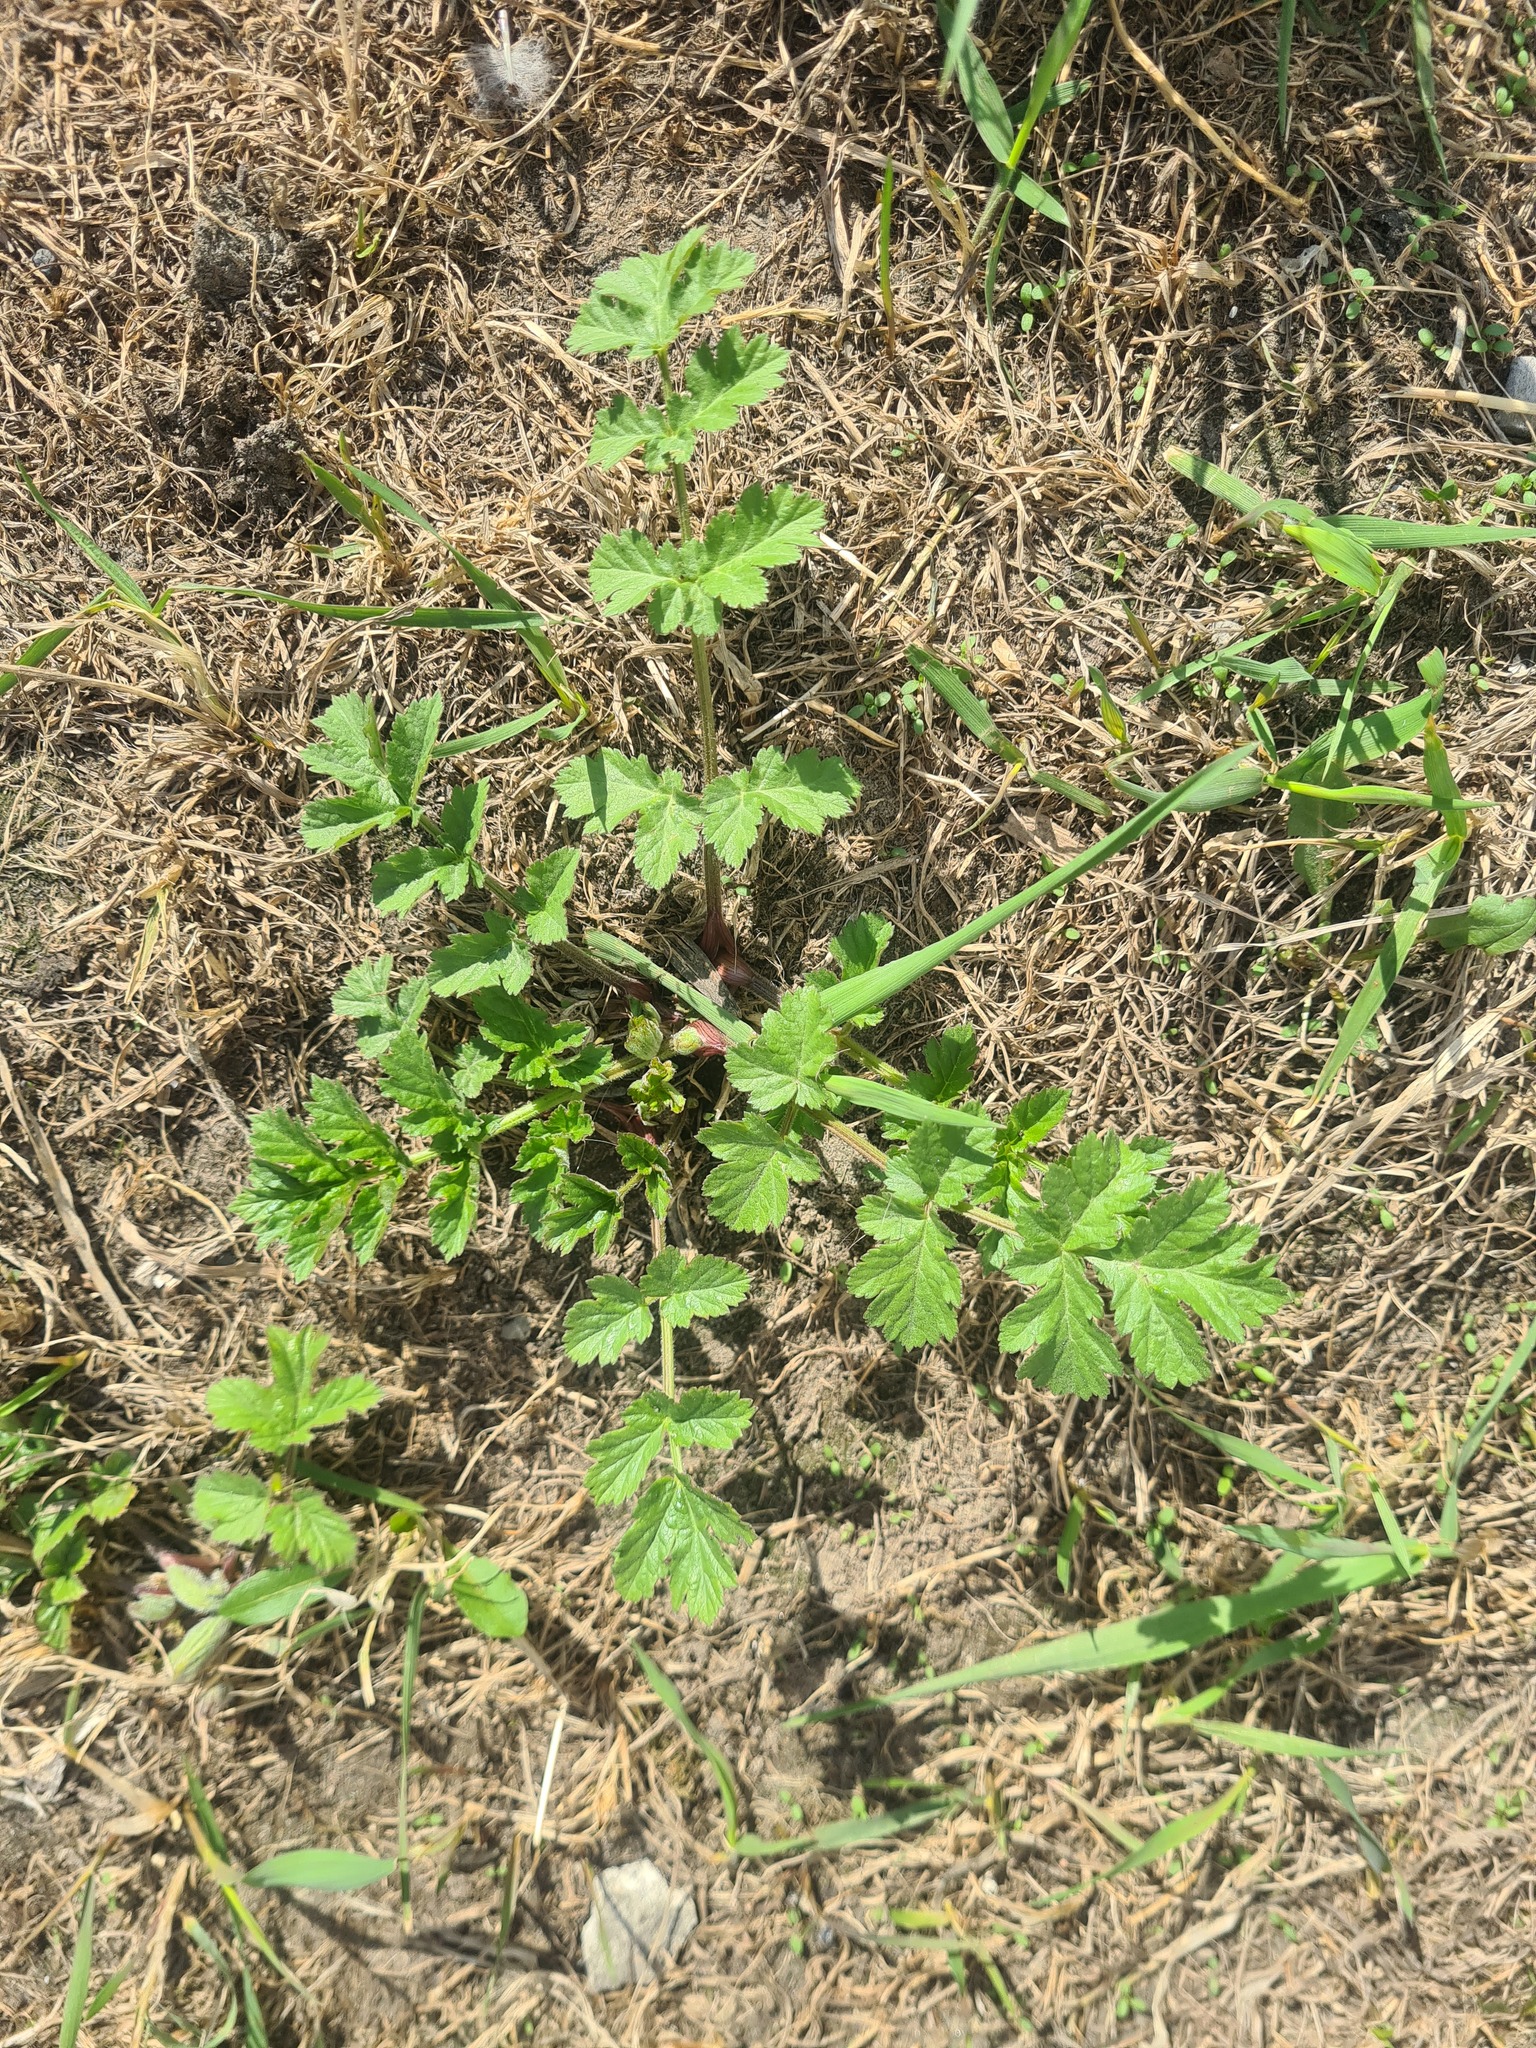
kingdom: Plantae
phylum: Tracheophyta
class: Magnoliopsida
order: Apiales
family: Apiaceae
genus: Pimpinella
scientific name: Pimpinella saxifraga
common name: Burnet-saxifrage
